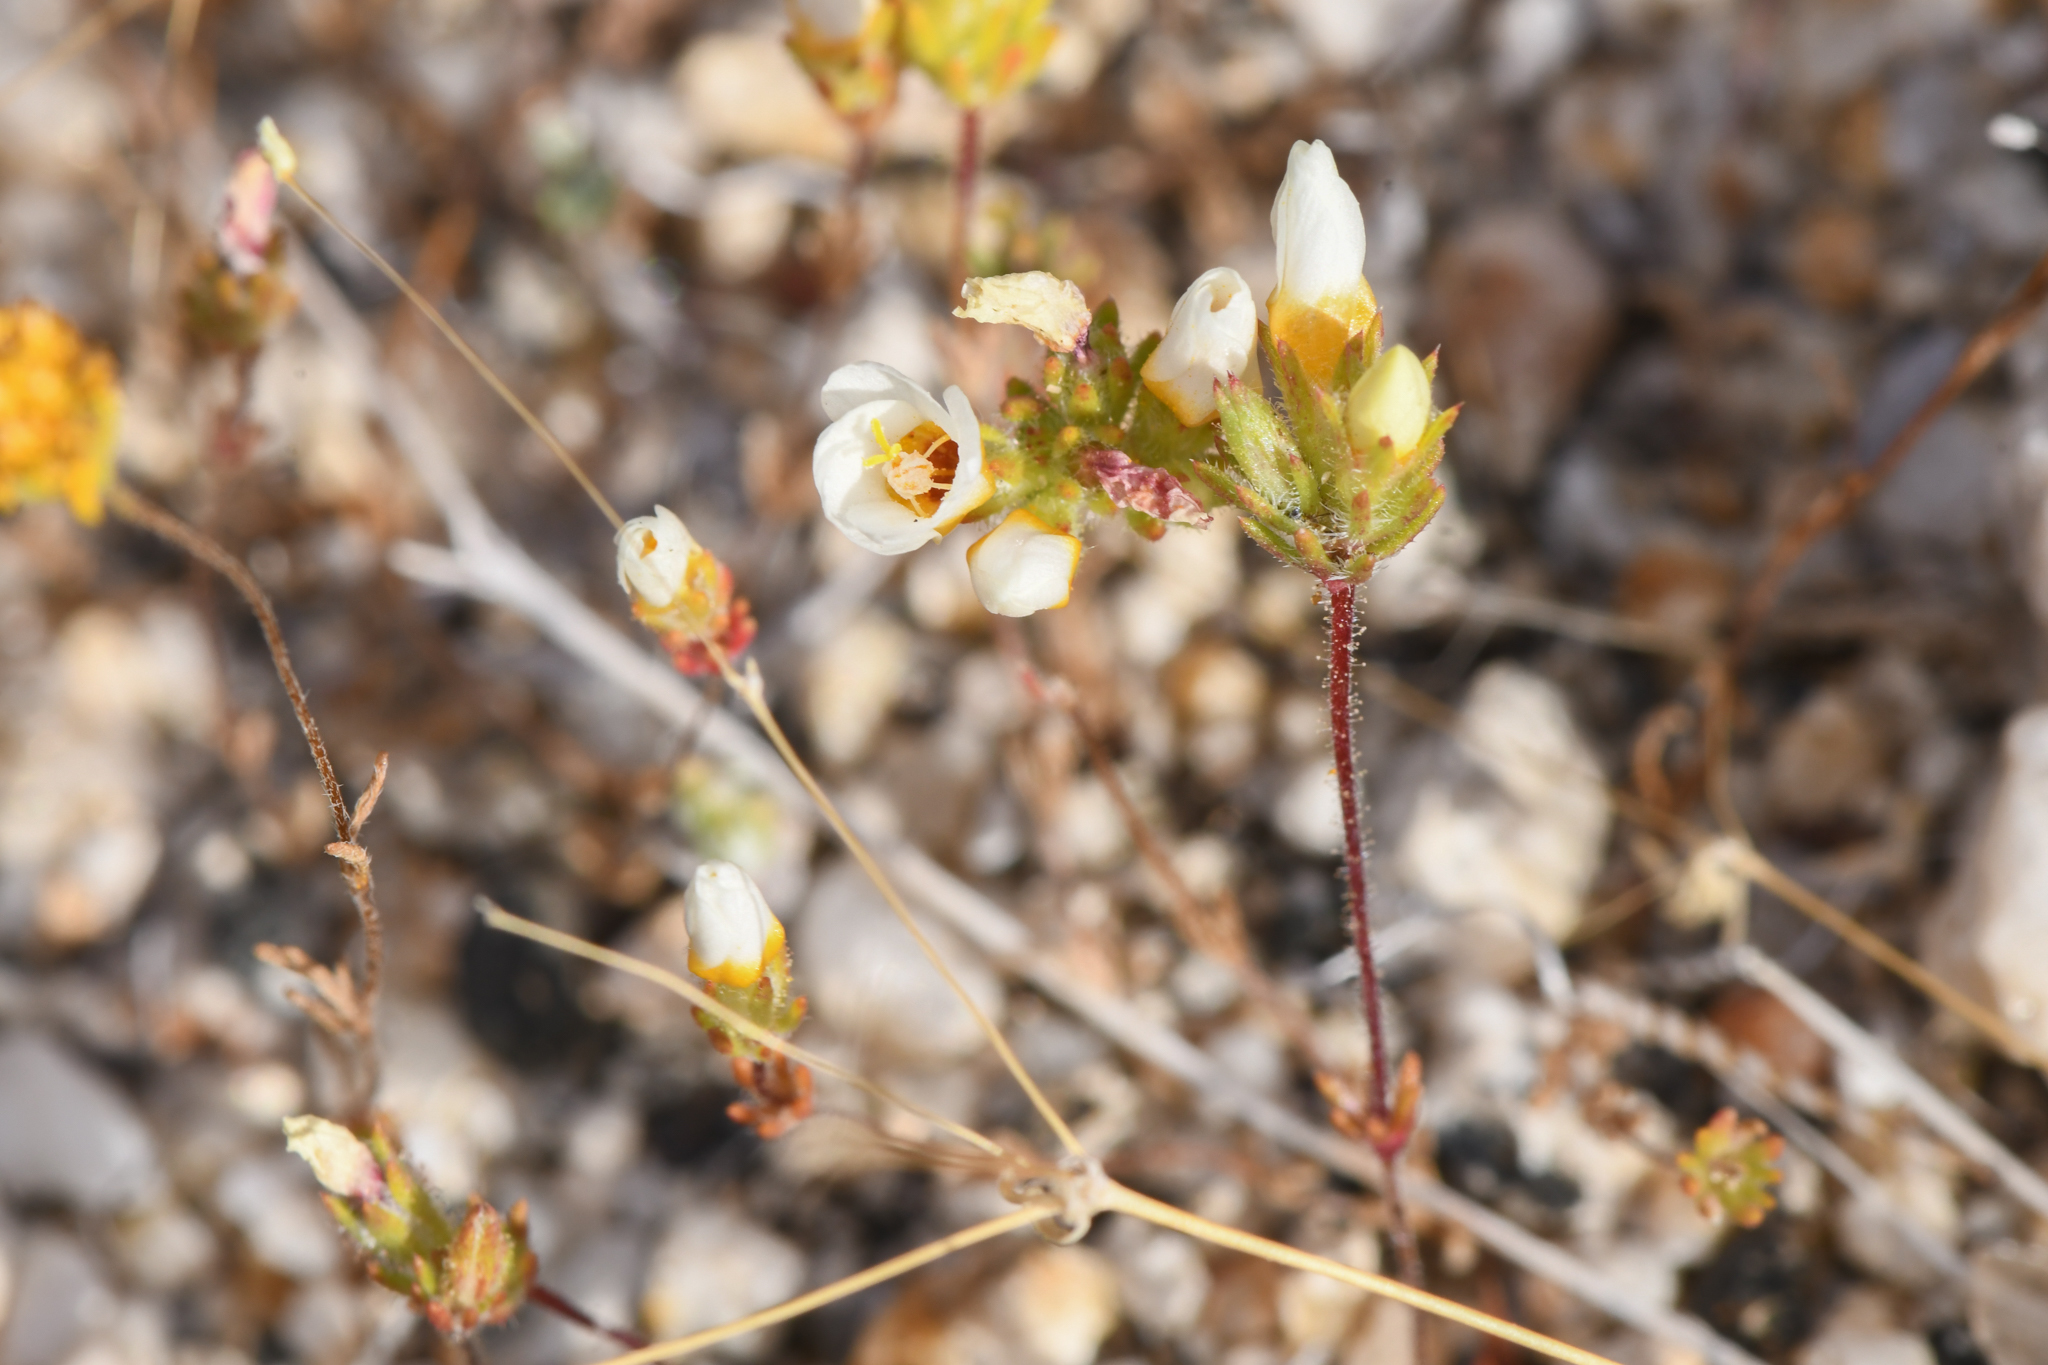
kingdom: Plantae
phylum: Tracheophyta
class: Magnoliopsida
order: Ericales
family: Polemoniaceae
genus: Leptosiphon
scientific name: Leptosiphon lemmonii
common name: Lemmon's linanthus
